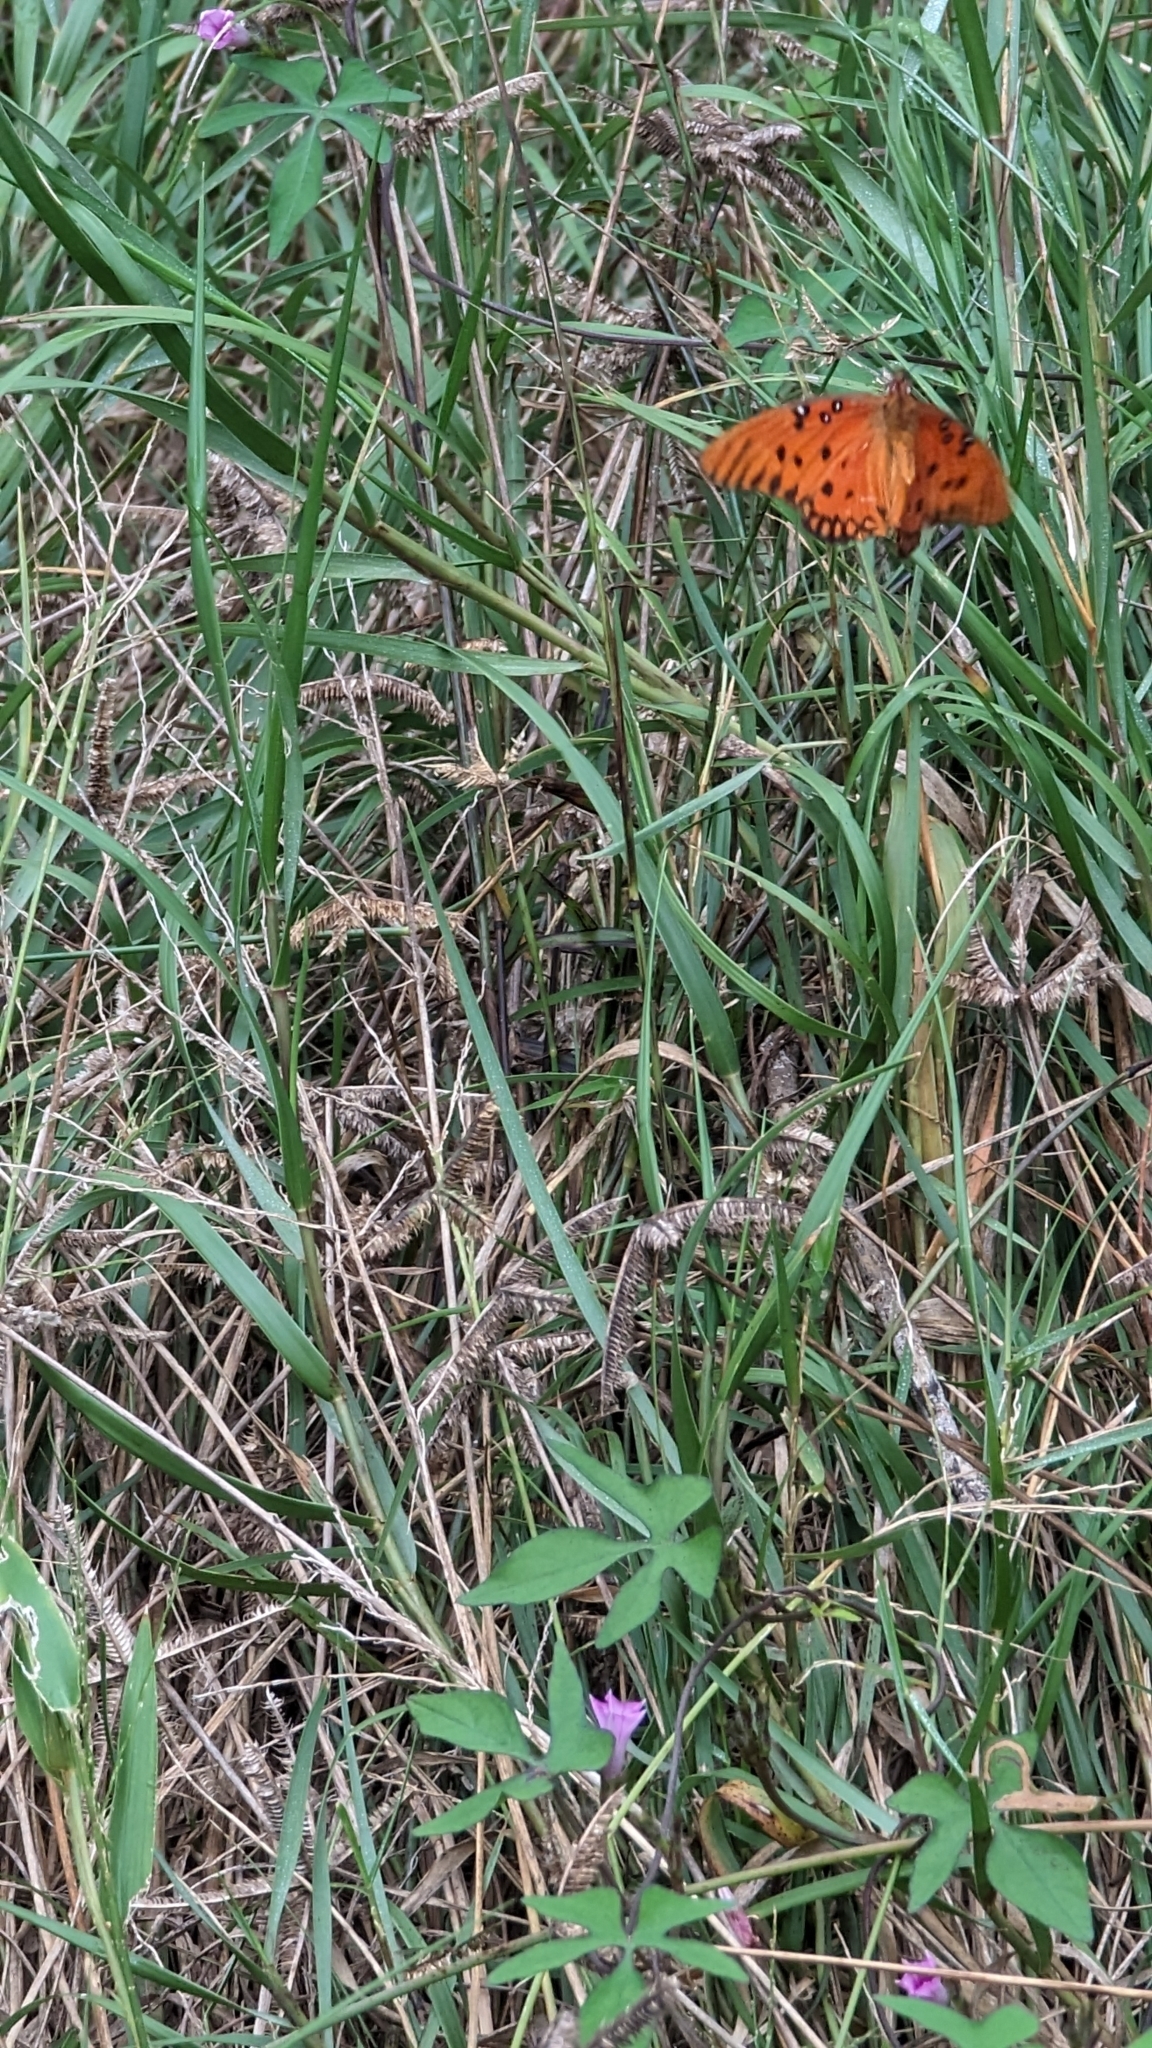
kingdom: Animalia
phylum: Arthropoda
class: Insecta
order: Lepidoptera
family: Nymphalidae
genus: Dione
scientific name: Dione vanillae
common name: Gulf fritillary
